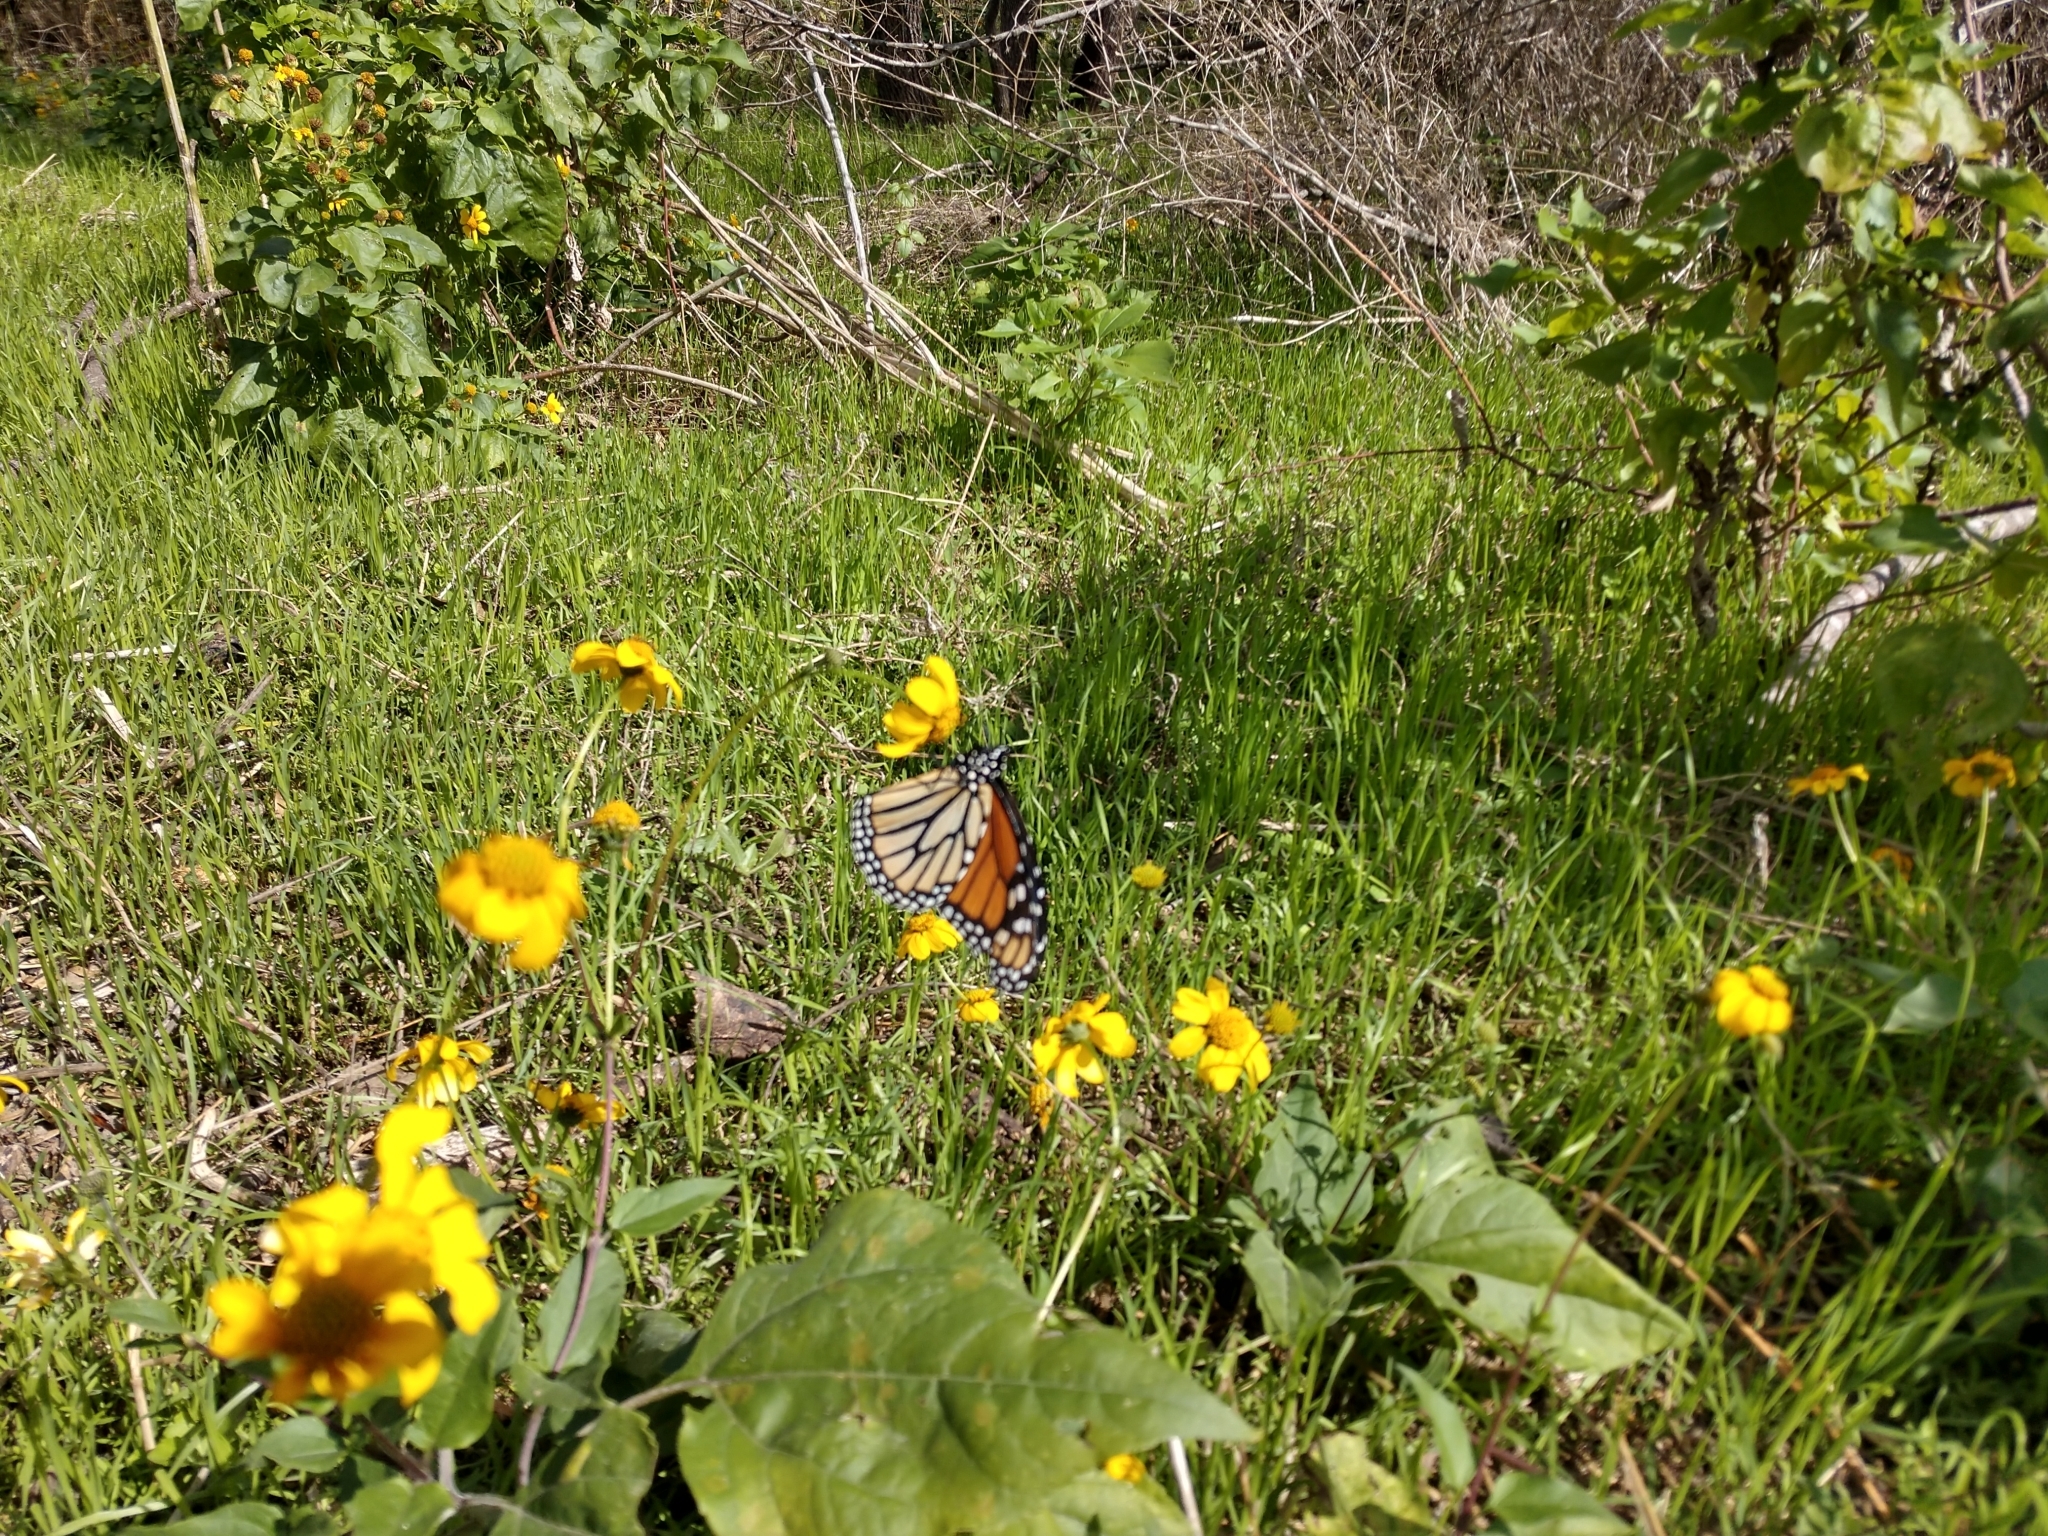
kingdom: Animalia
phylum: Arthropoda
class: Insecta
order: Lepidoptera
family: Nymphalidae
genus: Danaus
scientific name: Danaus plexippus
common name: Monarch
